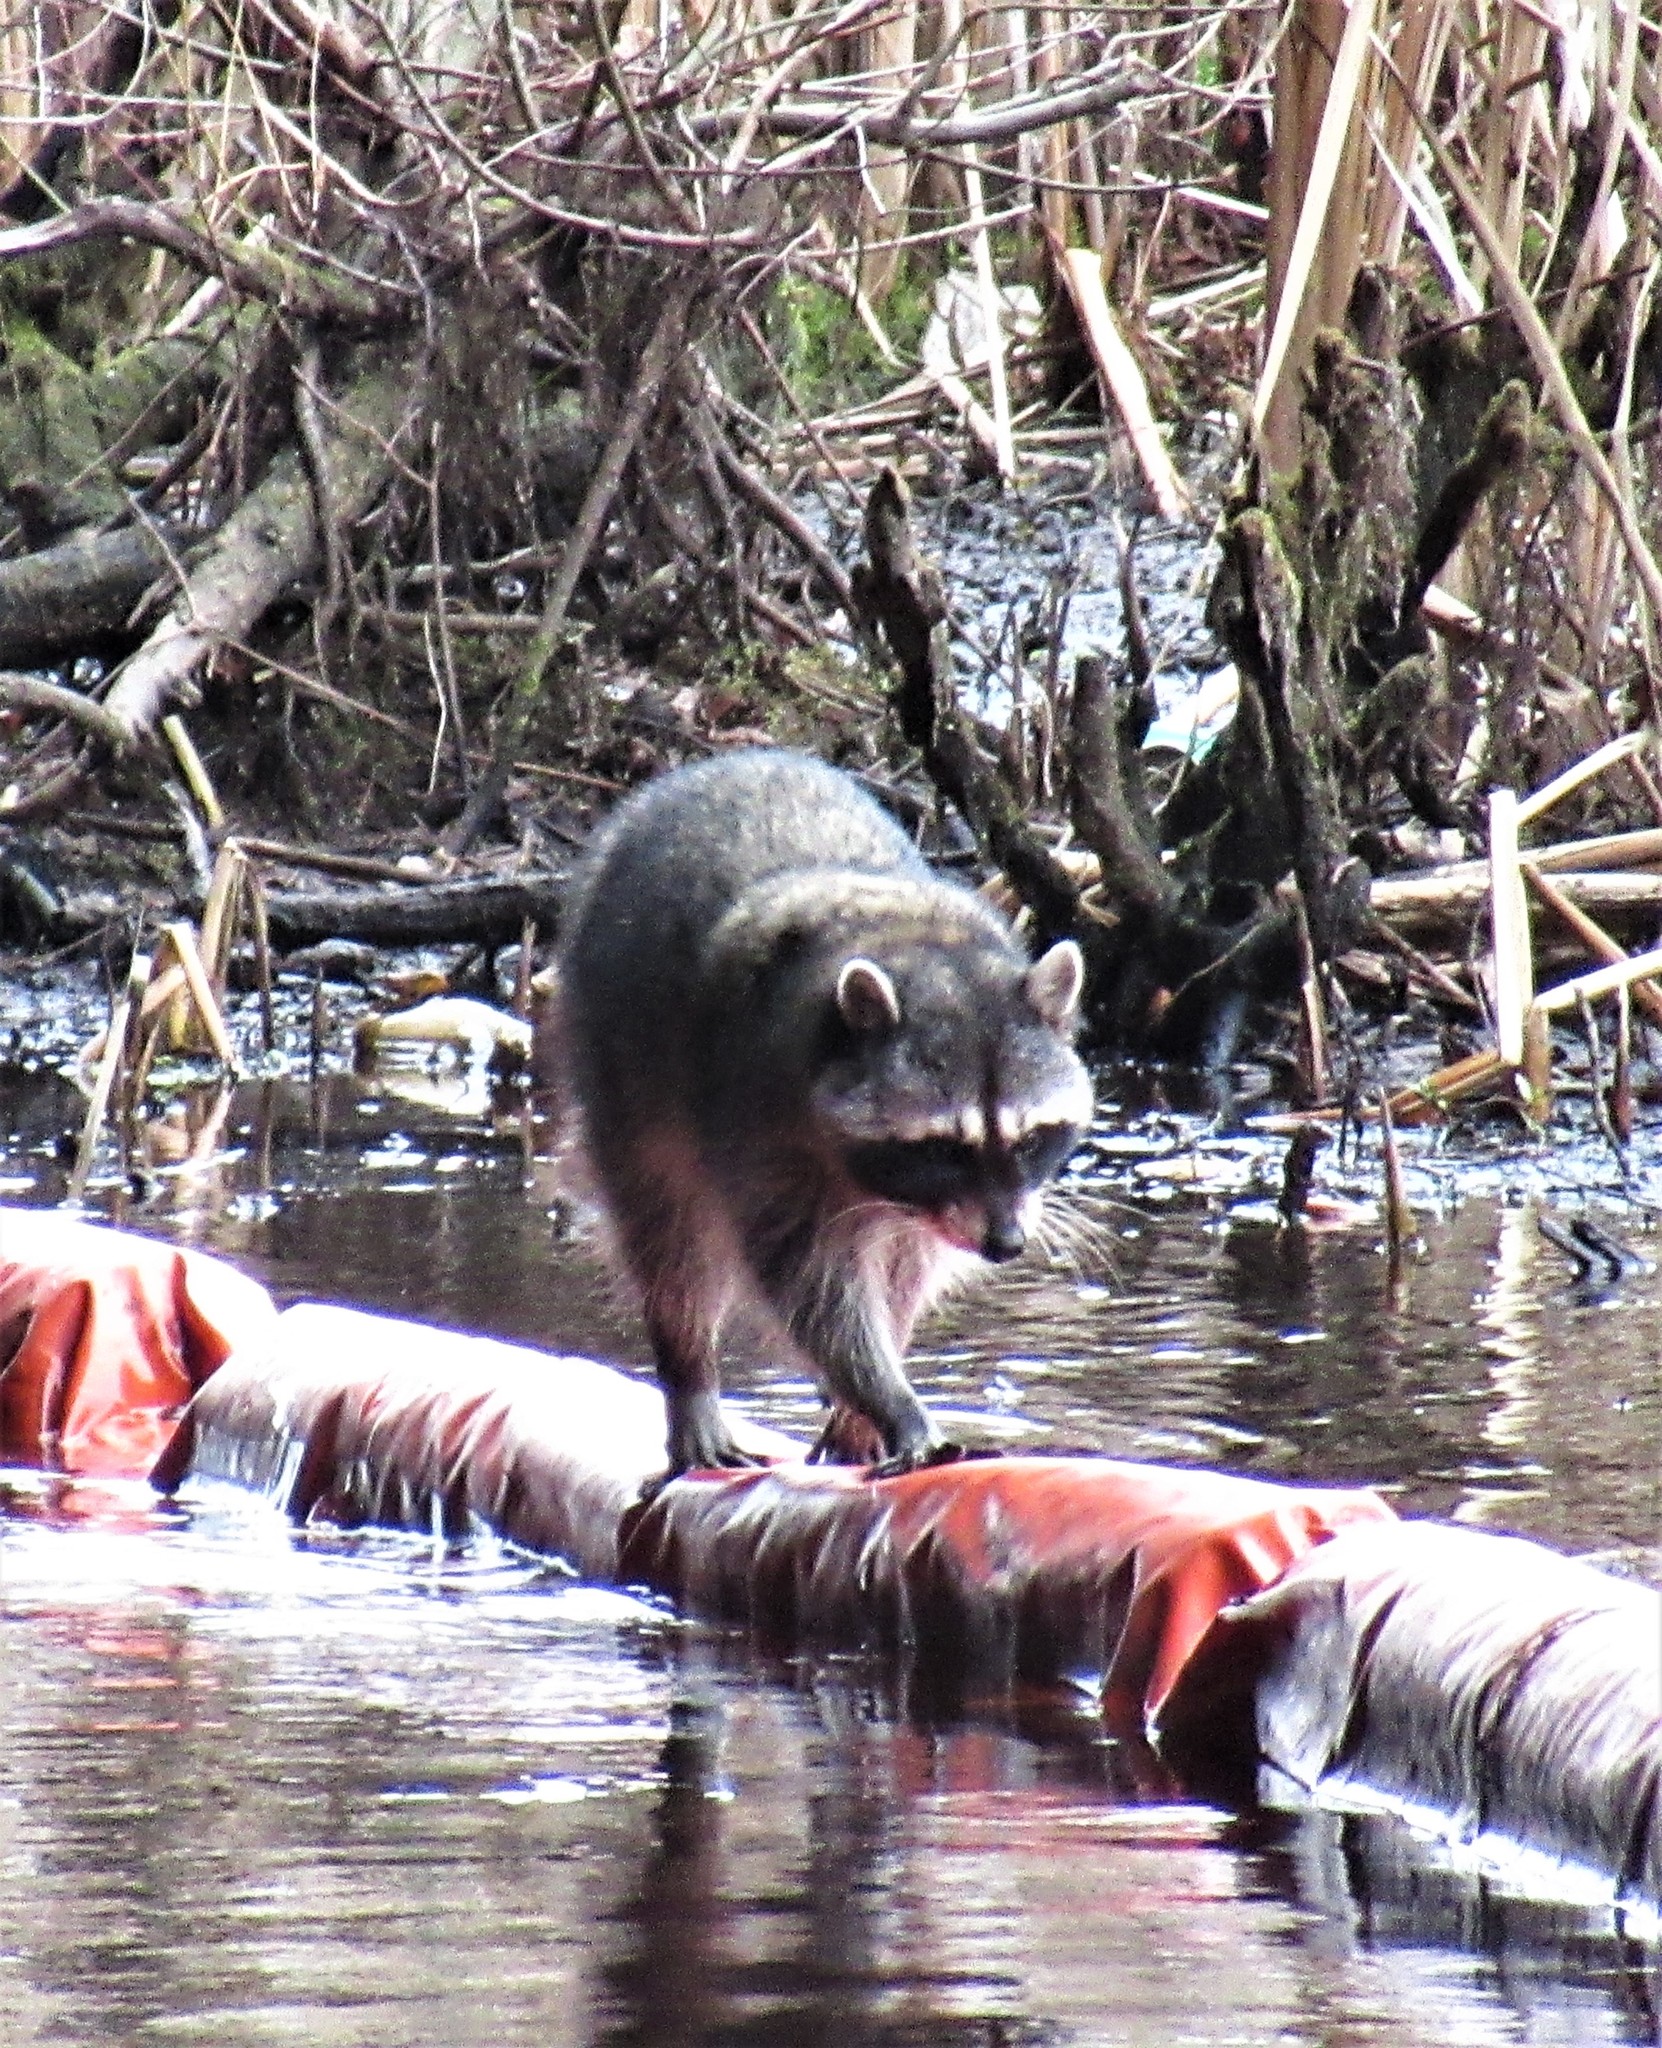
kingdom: Animalia
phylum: Chordata
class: Mammalia
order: Carnivora
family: Procyonidae
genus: Procyon
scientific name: Procyon lotor
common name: Raccoon
